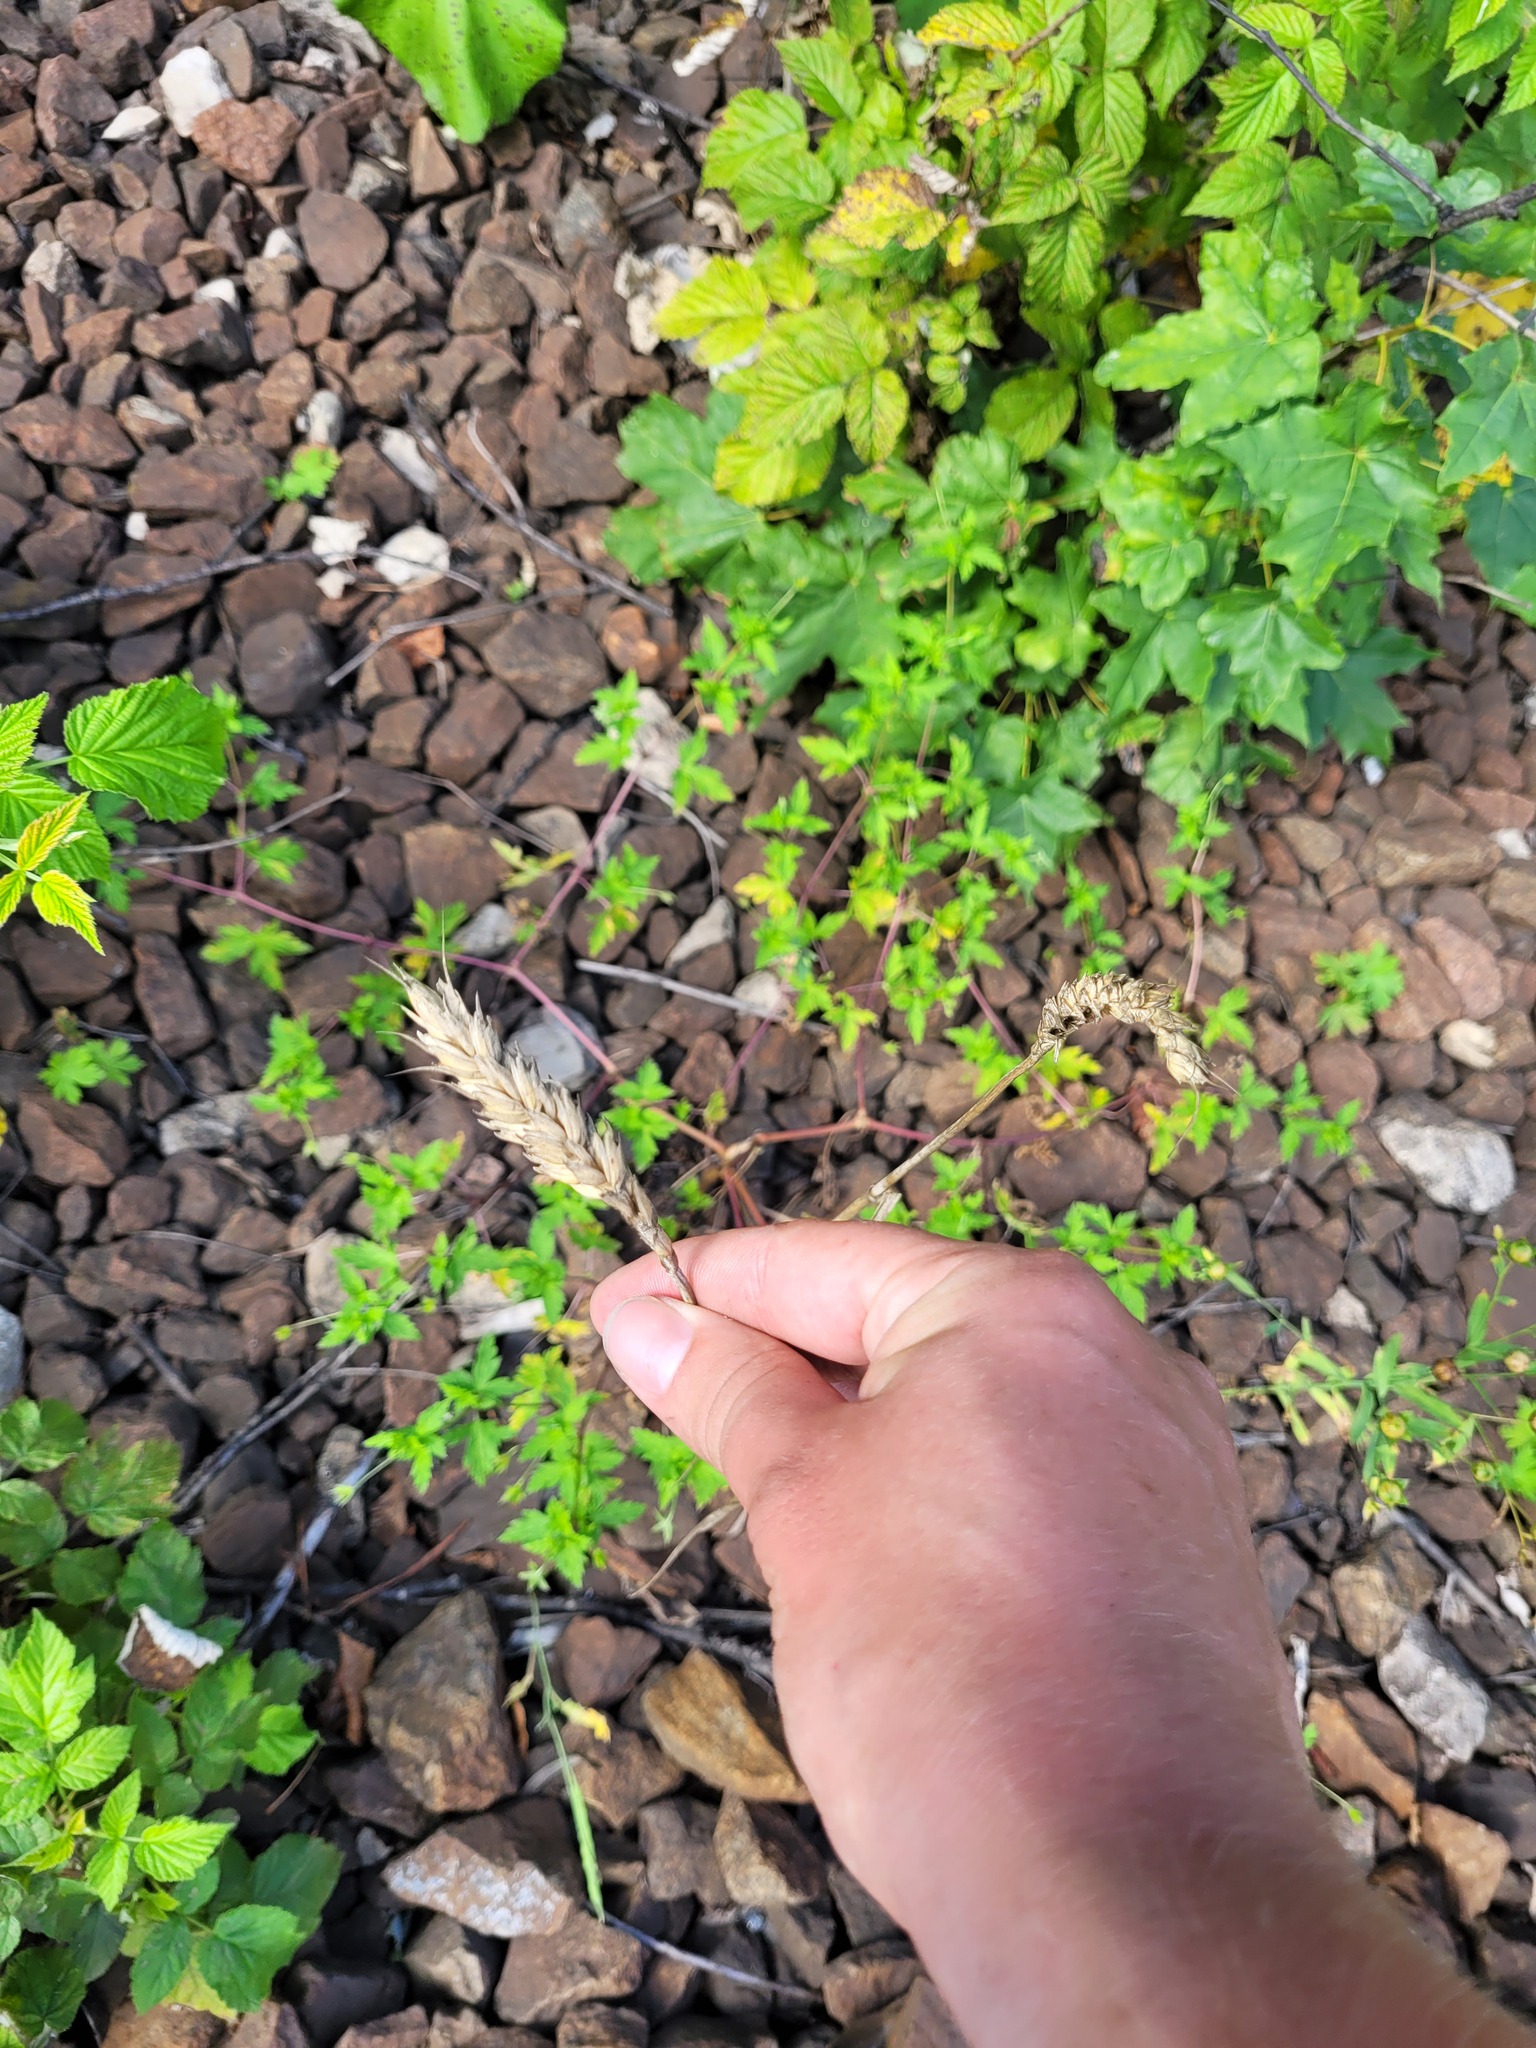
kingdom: Plantae
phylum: Tracheophyta
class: Liliopsida
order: Poales
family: Poaceae
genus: Triticum
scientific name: Triticum aestivum
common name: Common wheat
